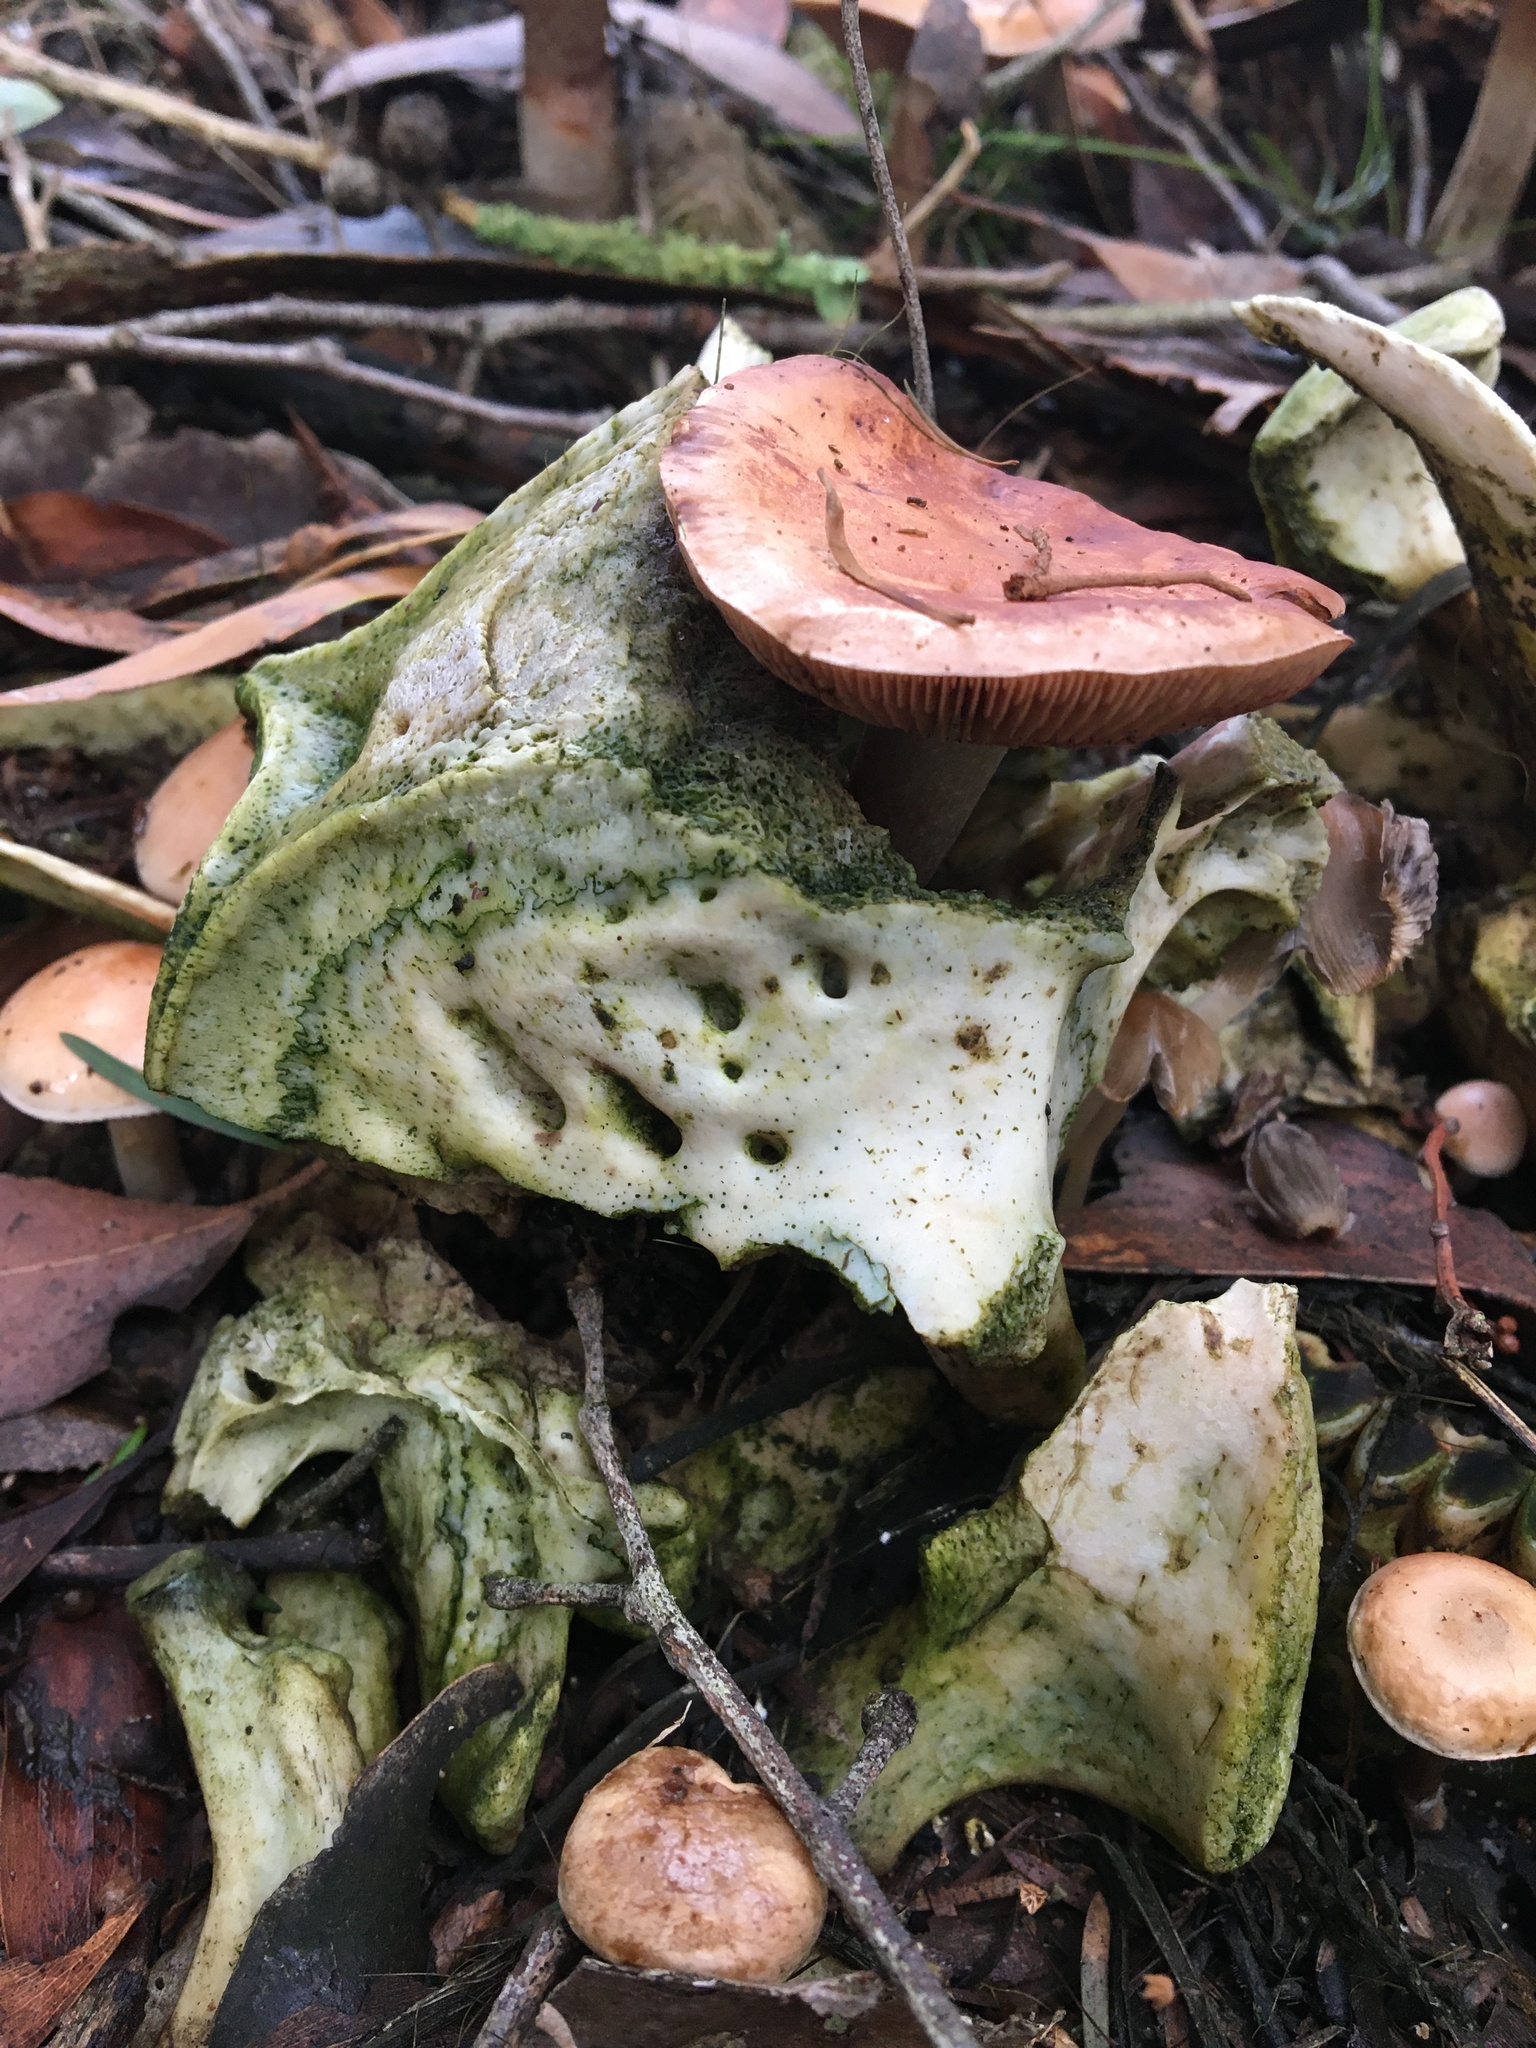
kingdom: Fungi
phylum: Basidiomycota
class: Agaricomycetes
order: Agaricales
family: Hymenogastraceae
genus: Hebeloma
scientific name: Hebeloma aminophilum
